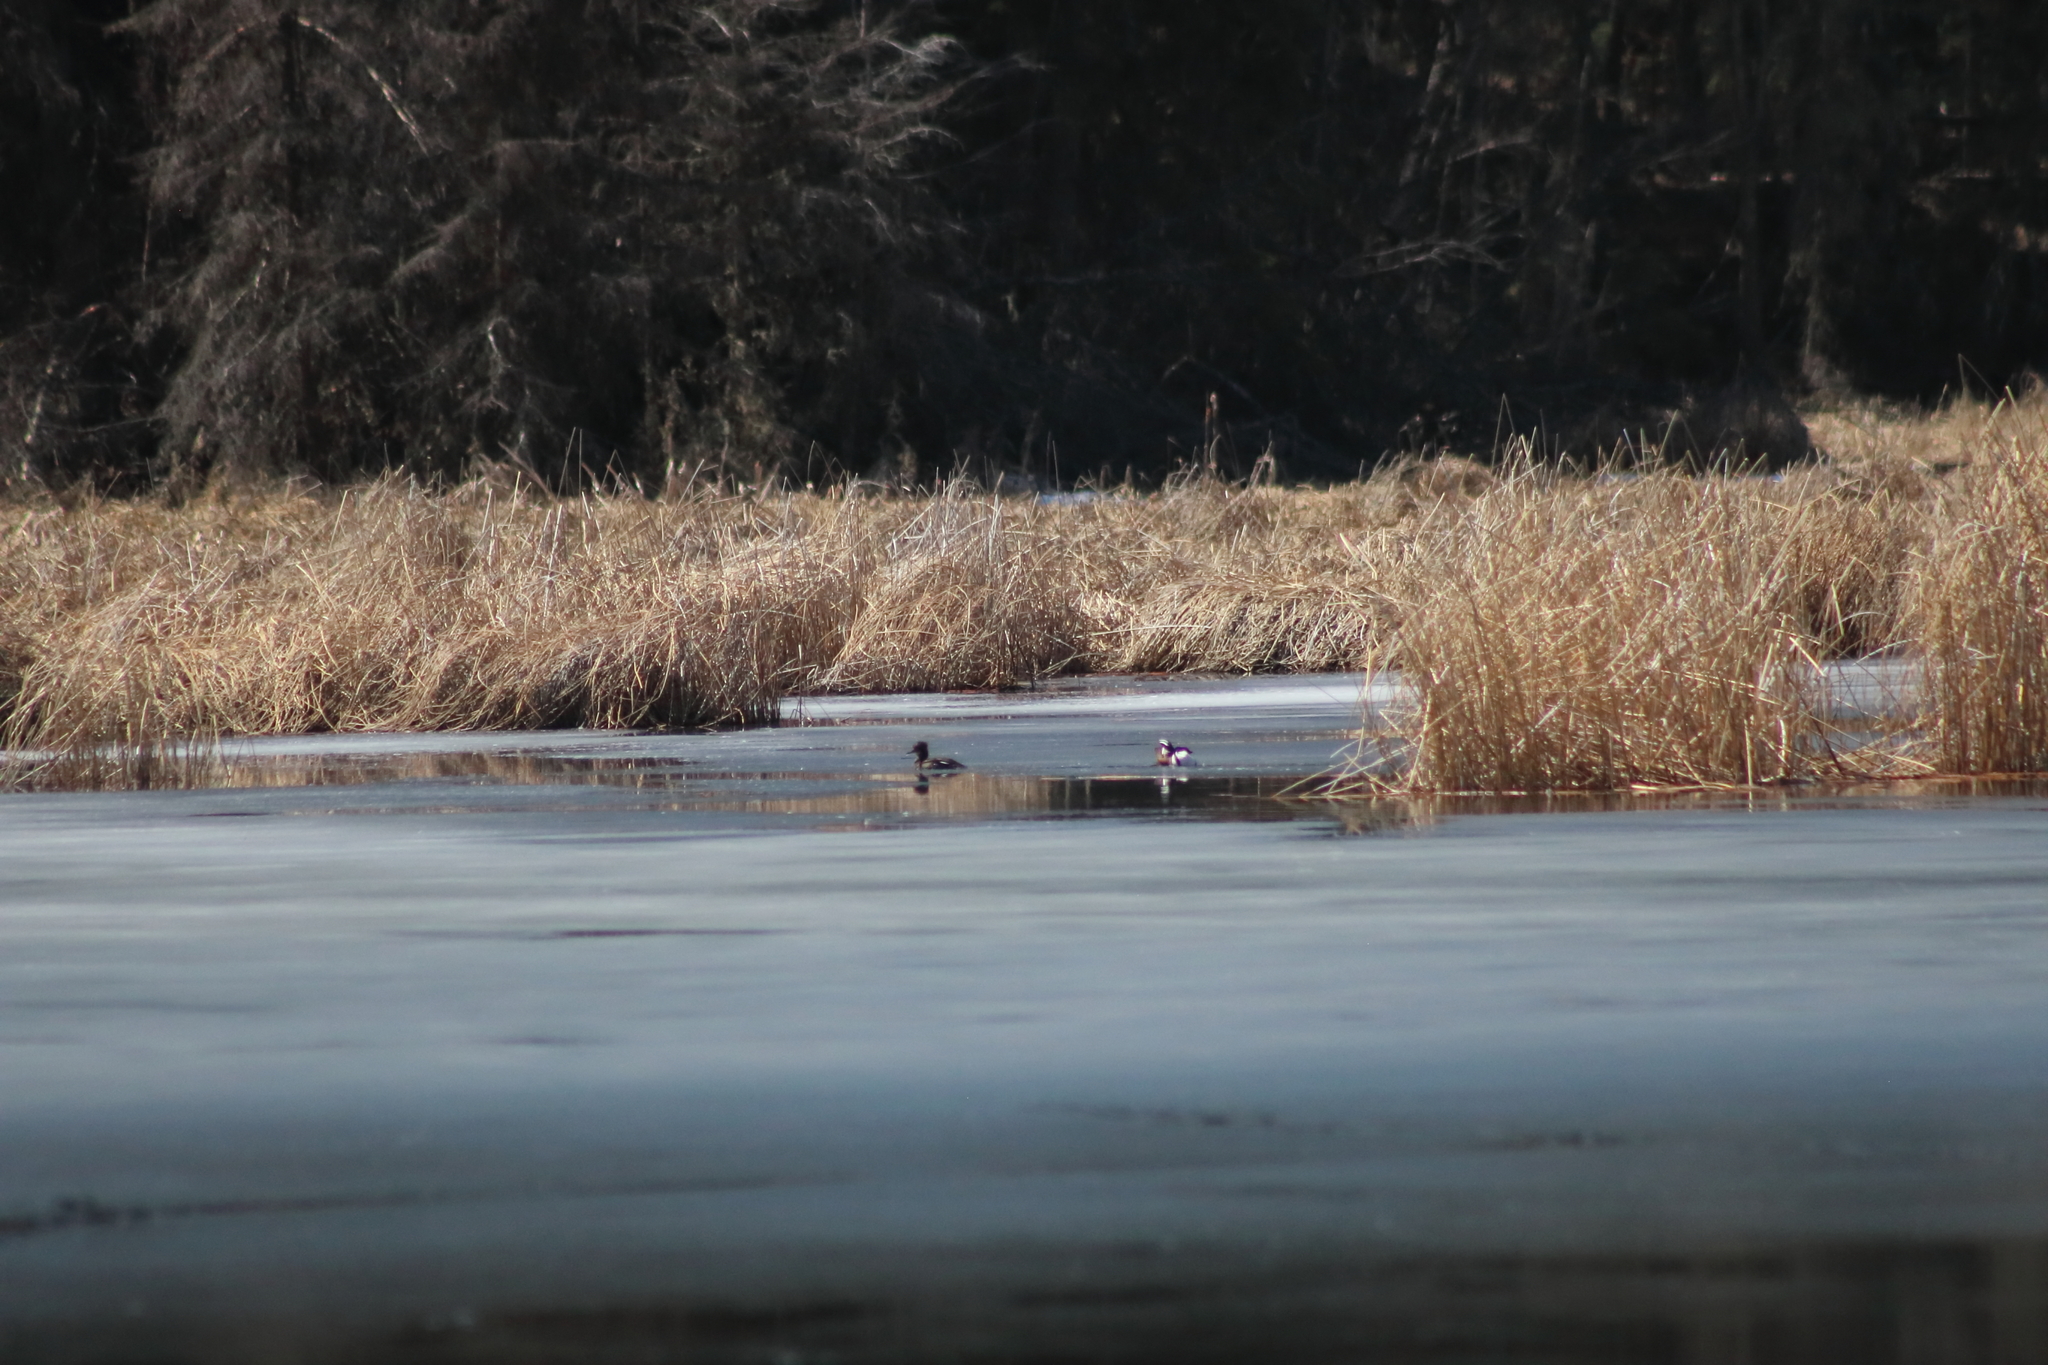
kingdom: Animalia
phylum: Chordata
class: Aves
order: Anseriformes
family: Anatidae
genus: Lophodytes
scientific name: Lophodytes cucullatus
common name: Hooded merganser
